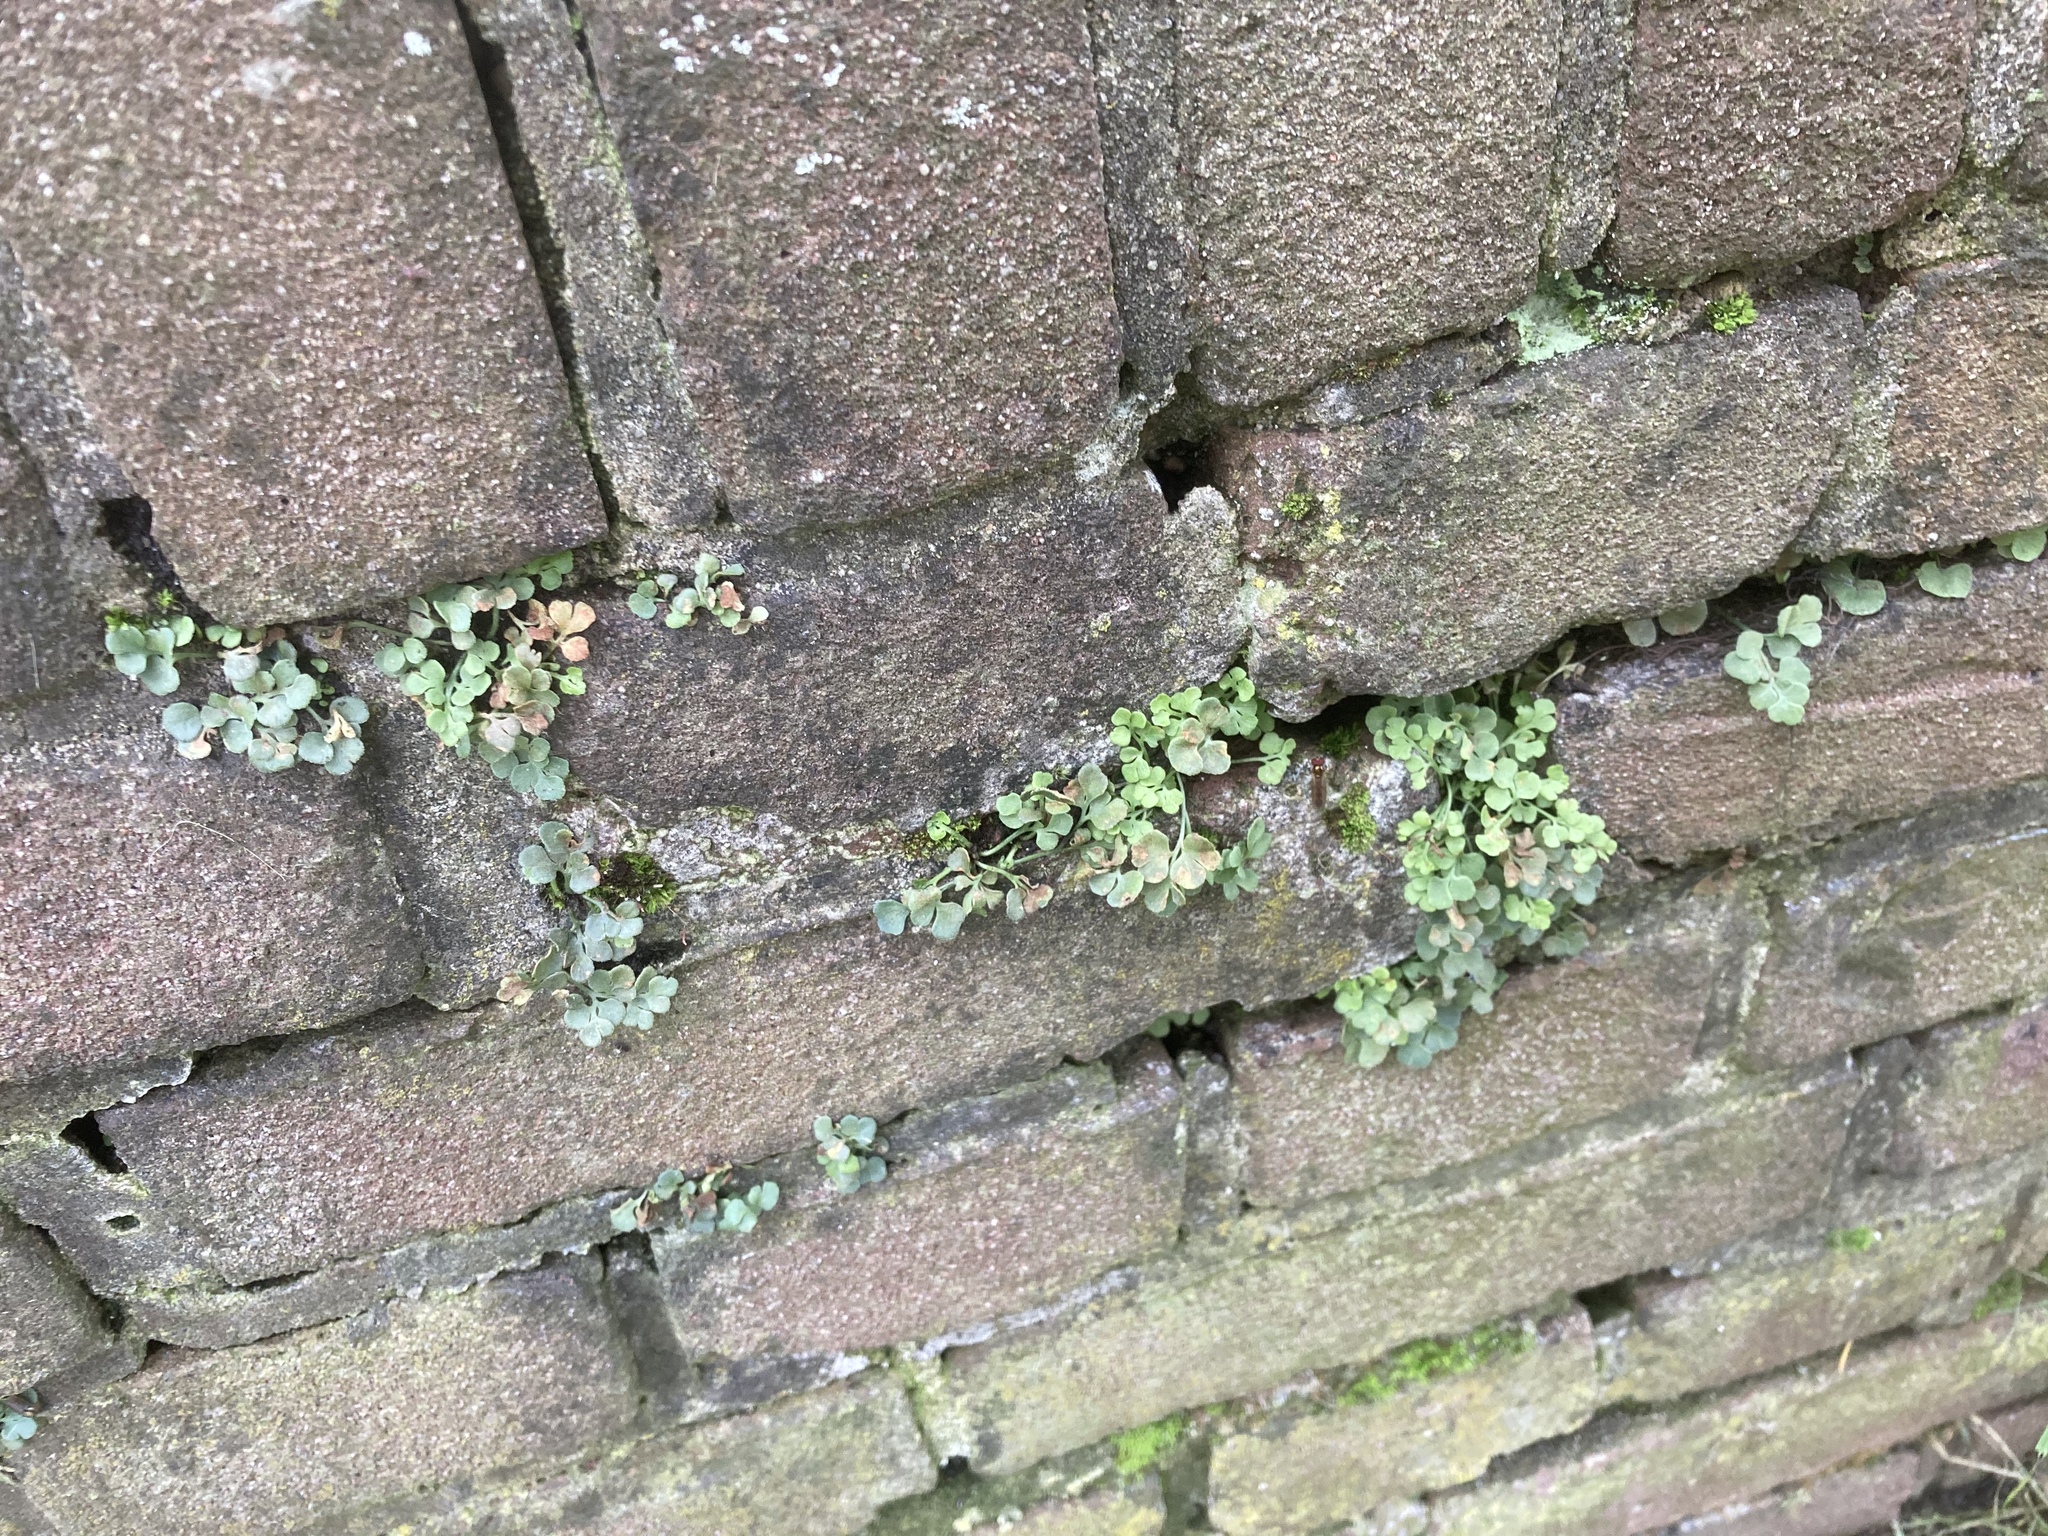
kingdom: Plantae
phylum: Tracheophyta
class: Polypodiopsida
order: Polypodiales
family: Aspleniaceae
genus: Asplenium
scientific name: Asplenium ruta-muraria
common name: Wall-rue
